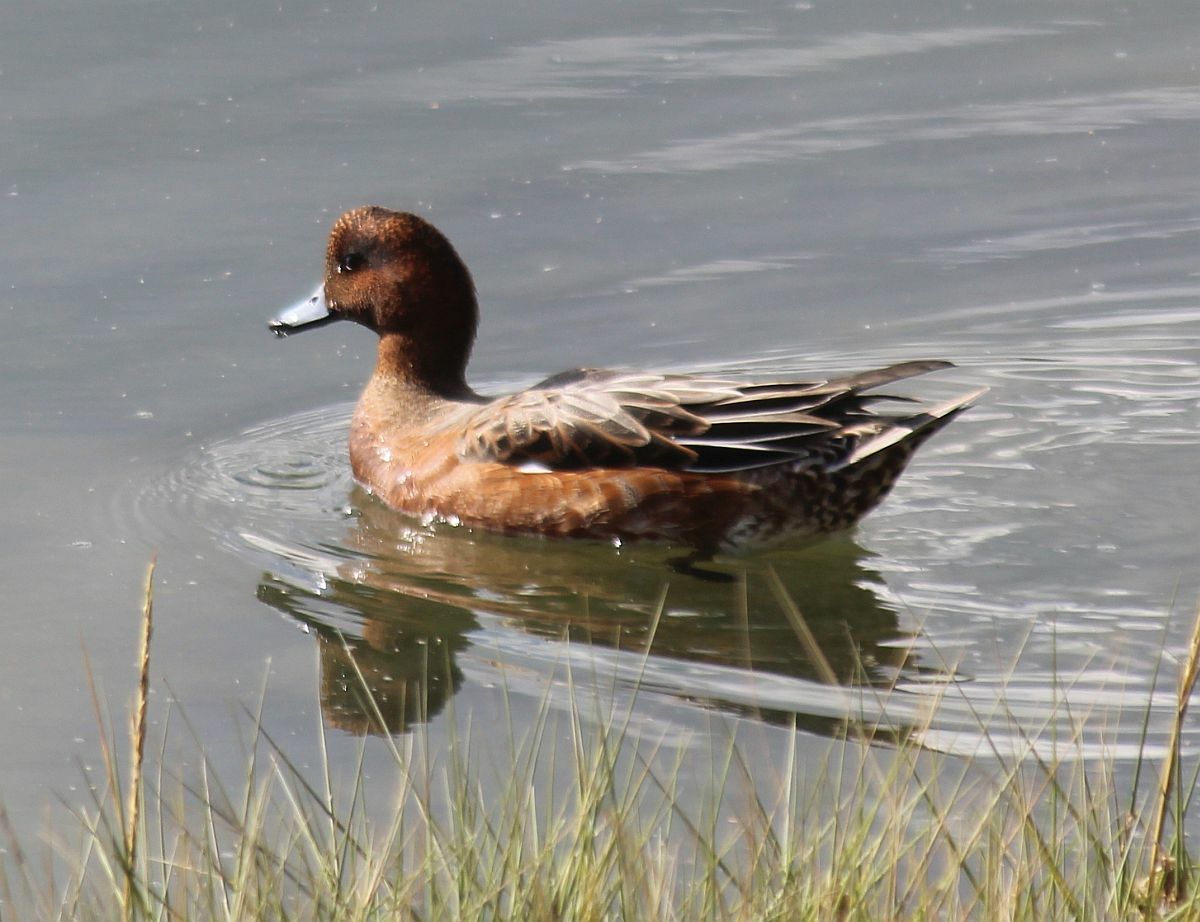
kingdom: Animalia
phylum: Chordata
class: Aves
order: Anseriformes
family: Anatidae
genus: Mareca
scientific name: Mareca penelope
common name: Eurasian wigeon
